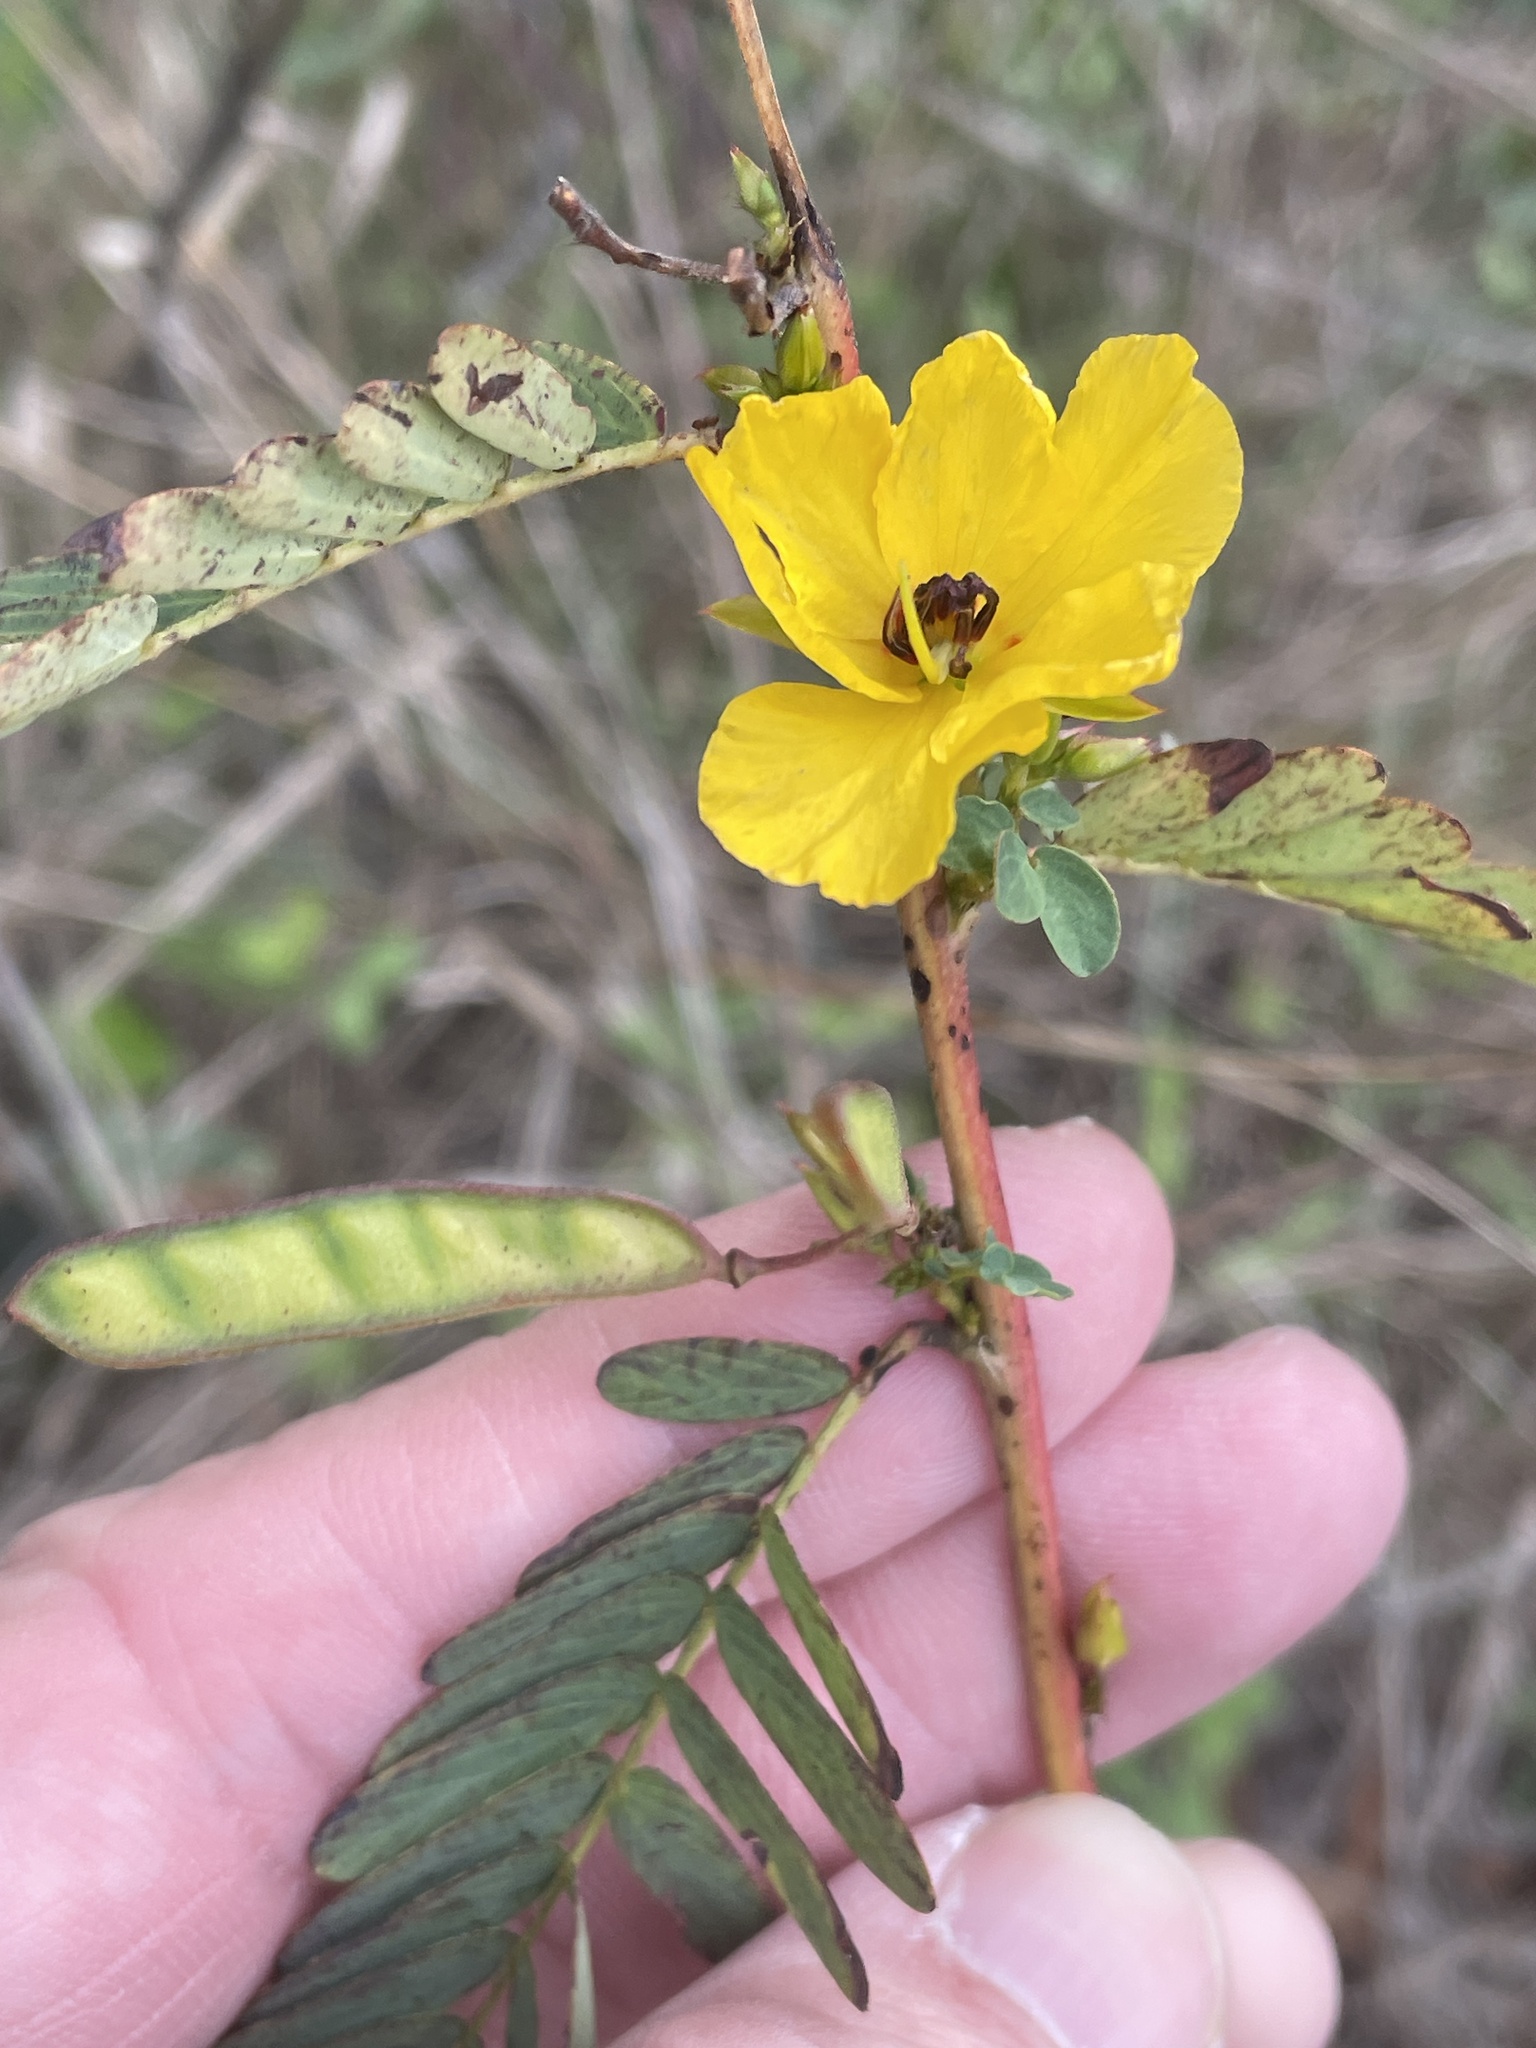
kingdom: Plantae
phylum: Tracheophyta
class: Magnoliopsida
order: Fabales
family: Fabaceae
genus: Chamaecrista
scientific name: Chamaecrista fasciculata
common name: Golden cassia
